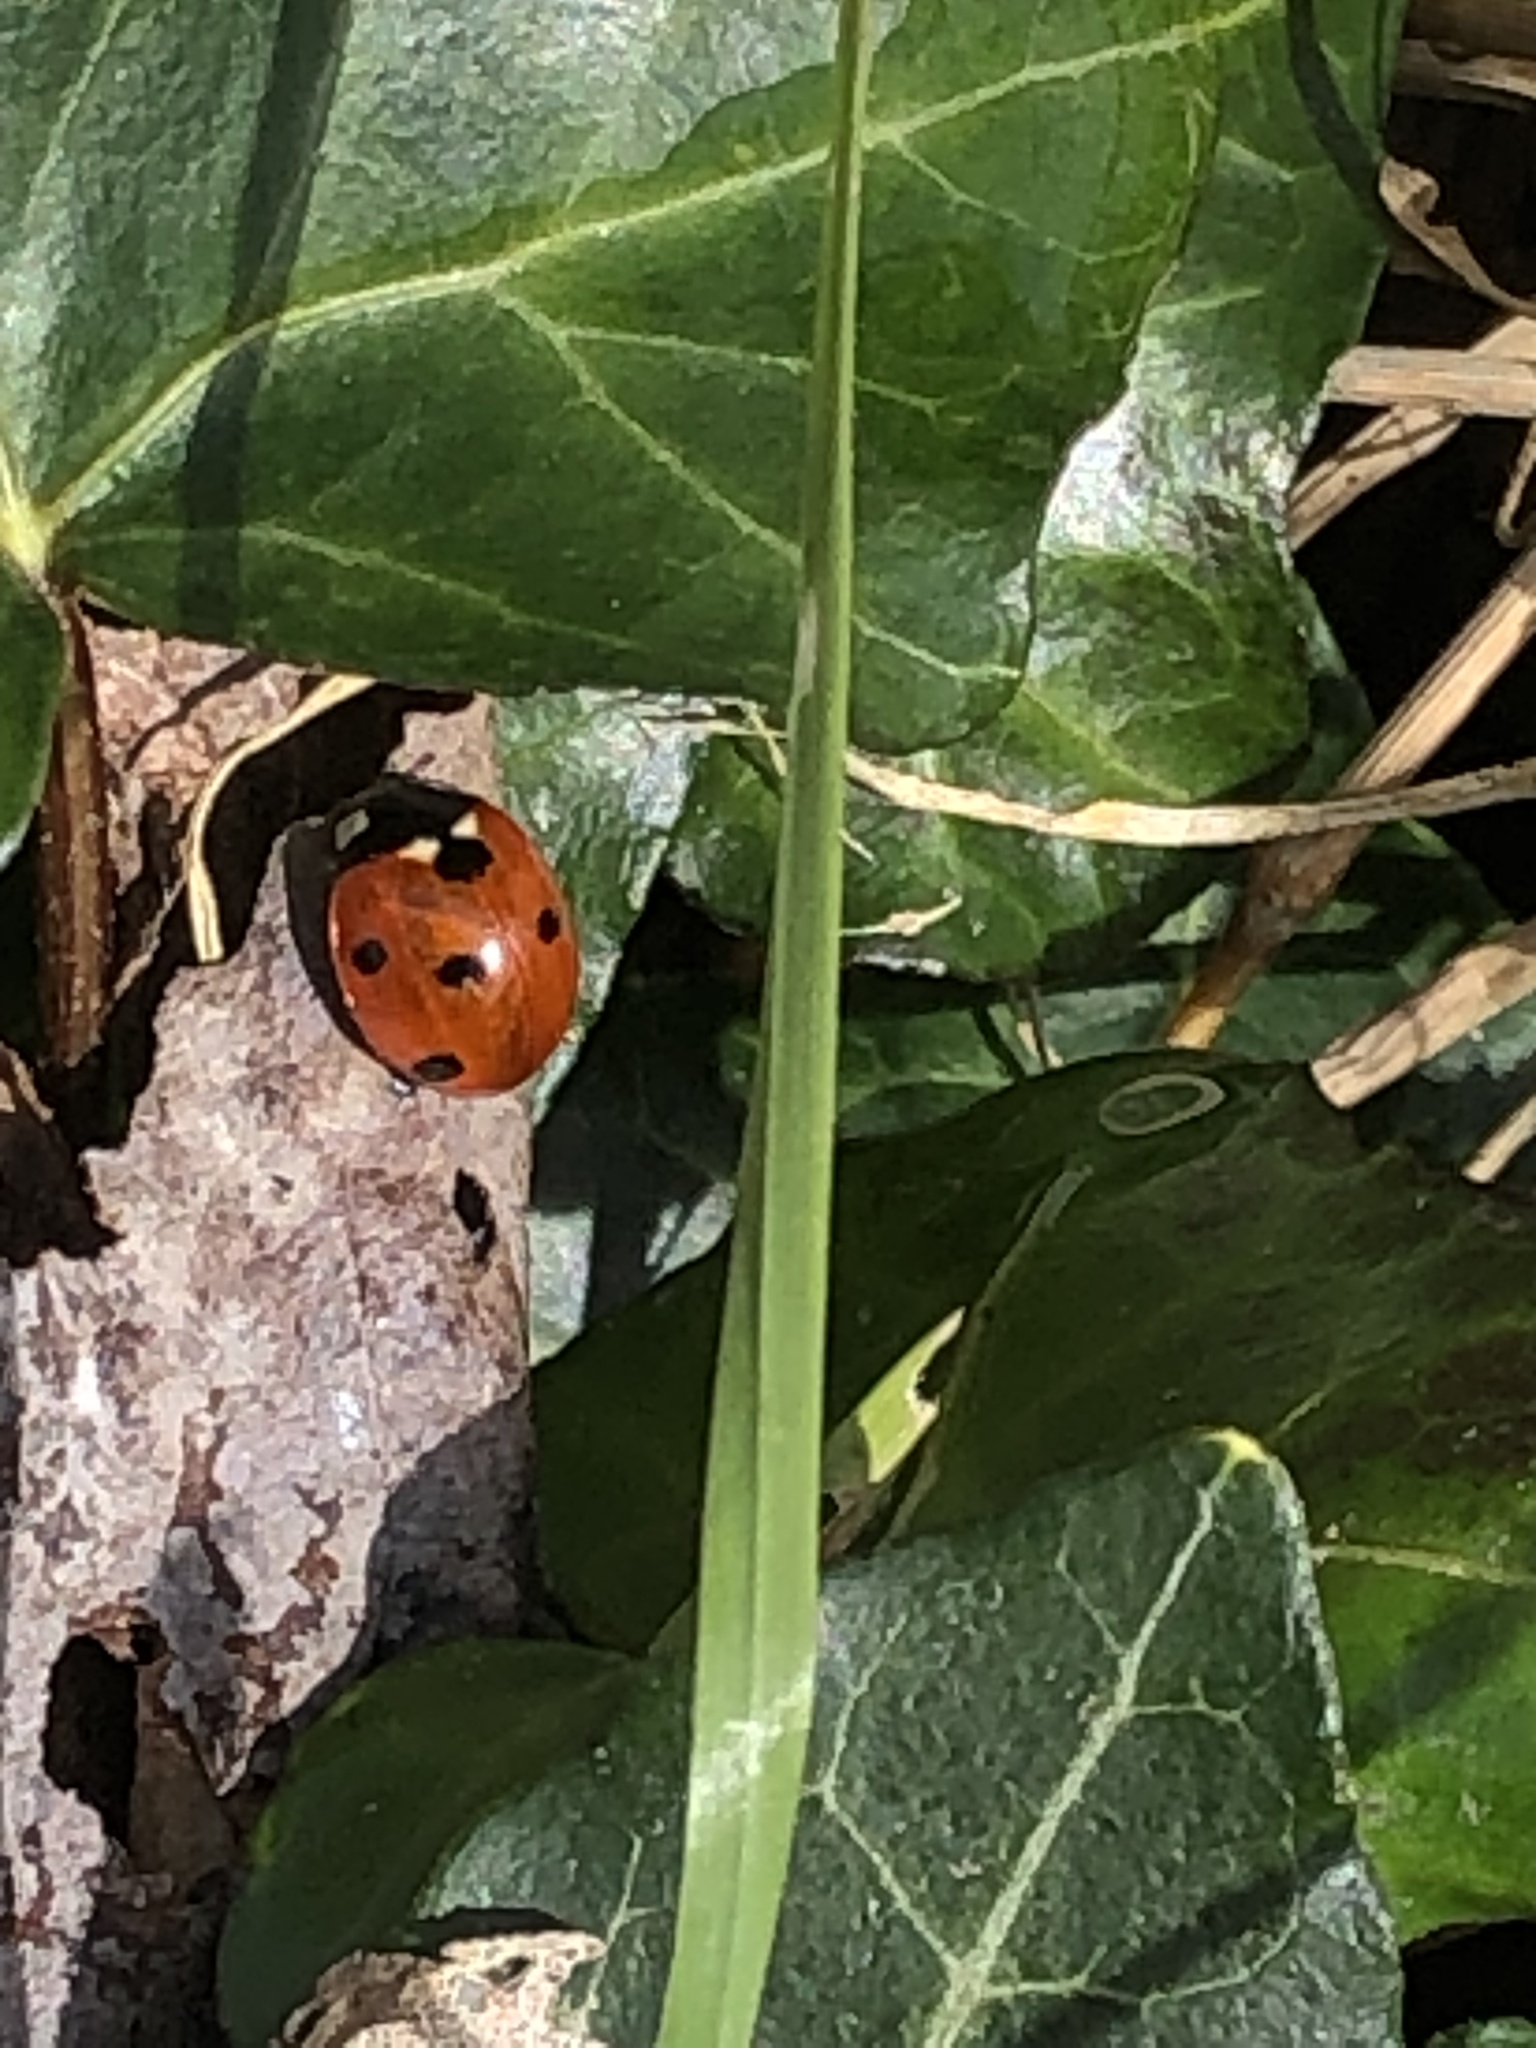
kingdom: Animalia
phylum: Arthropoda
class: Insecta
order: Coleoptera
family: Coccinellidae
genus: Coccinella
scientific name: Coccinella septempunctata
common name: Sevenspotted lady beetle
